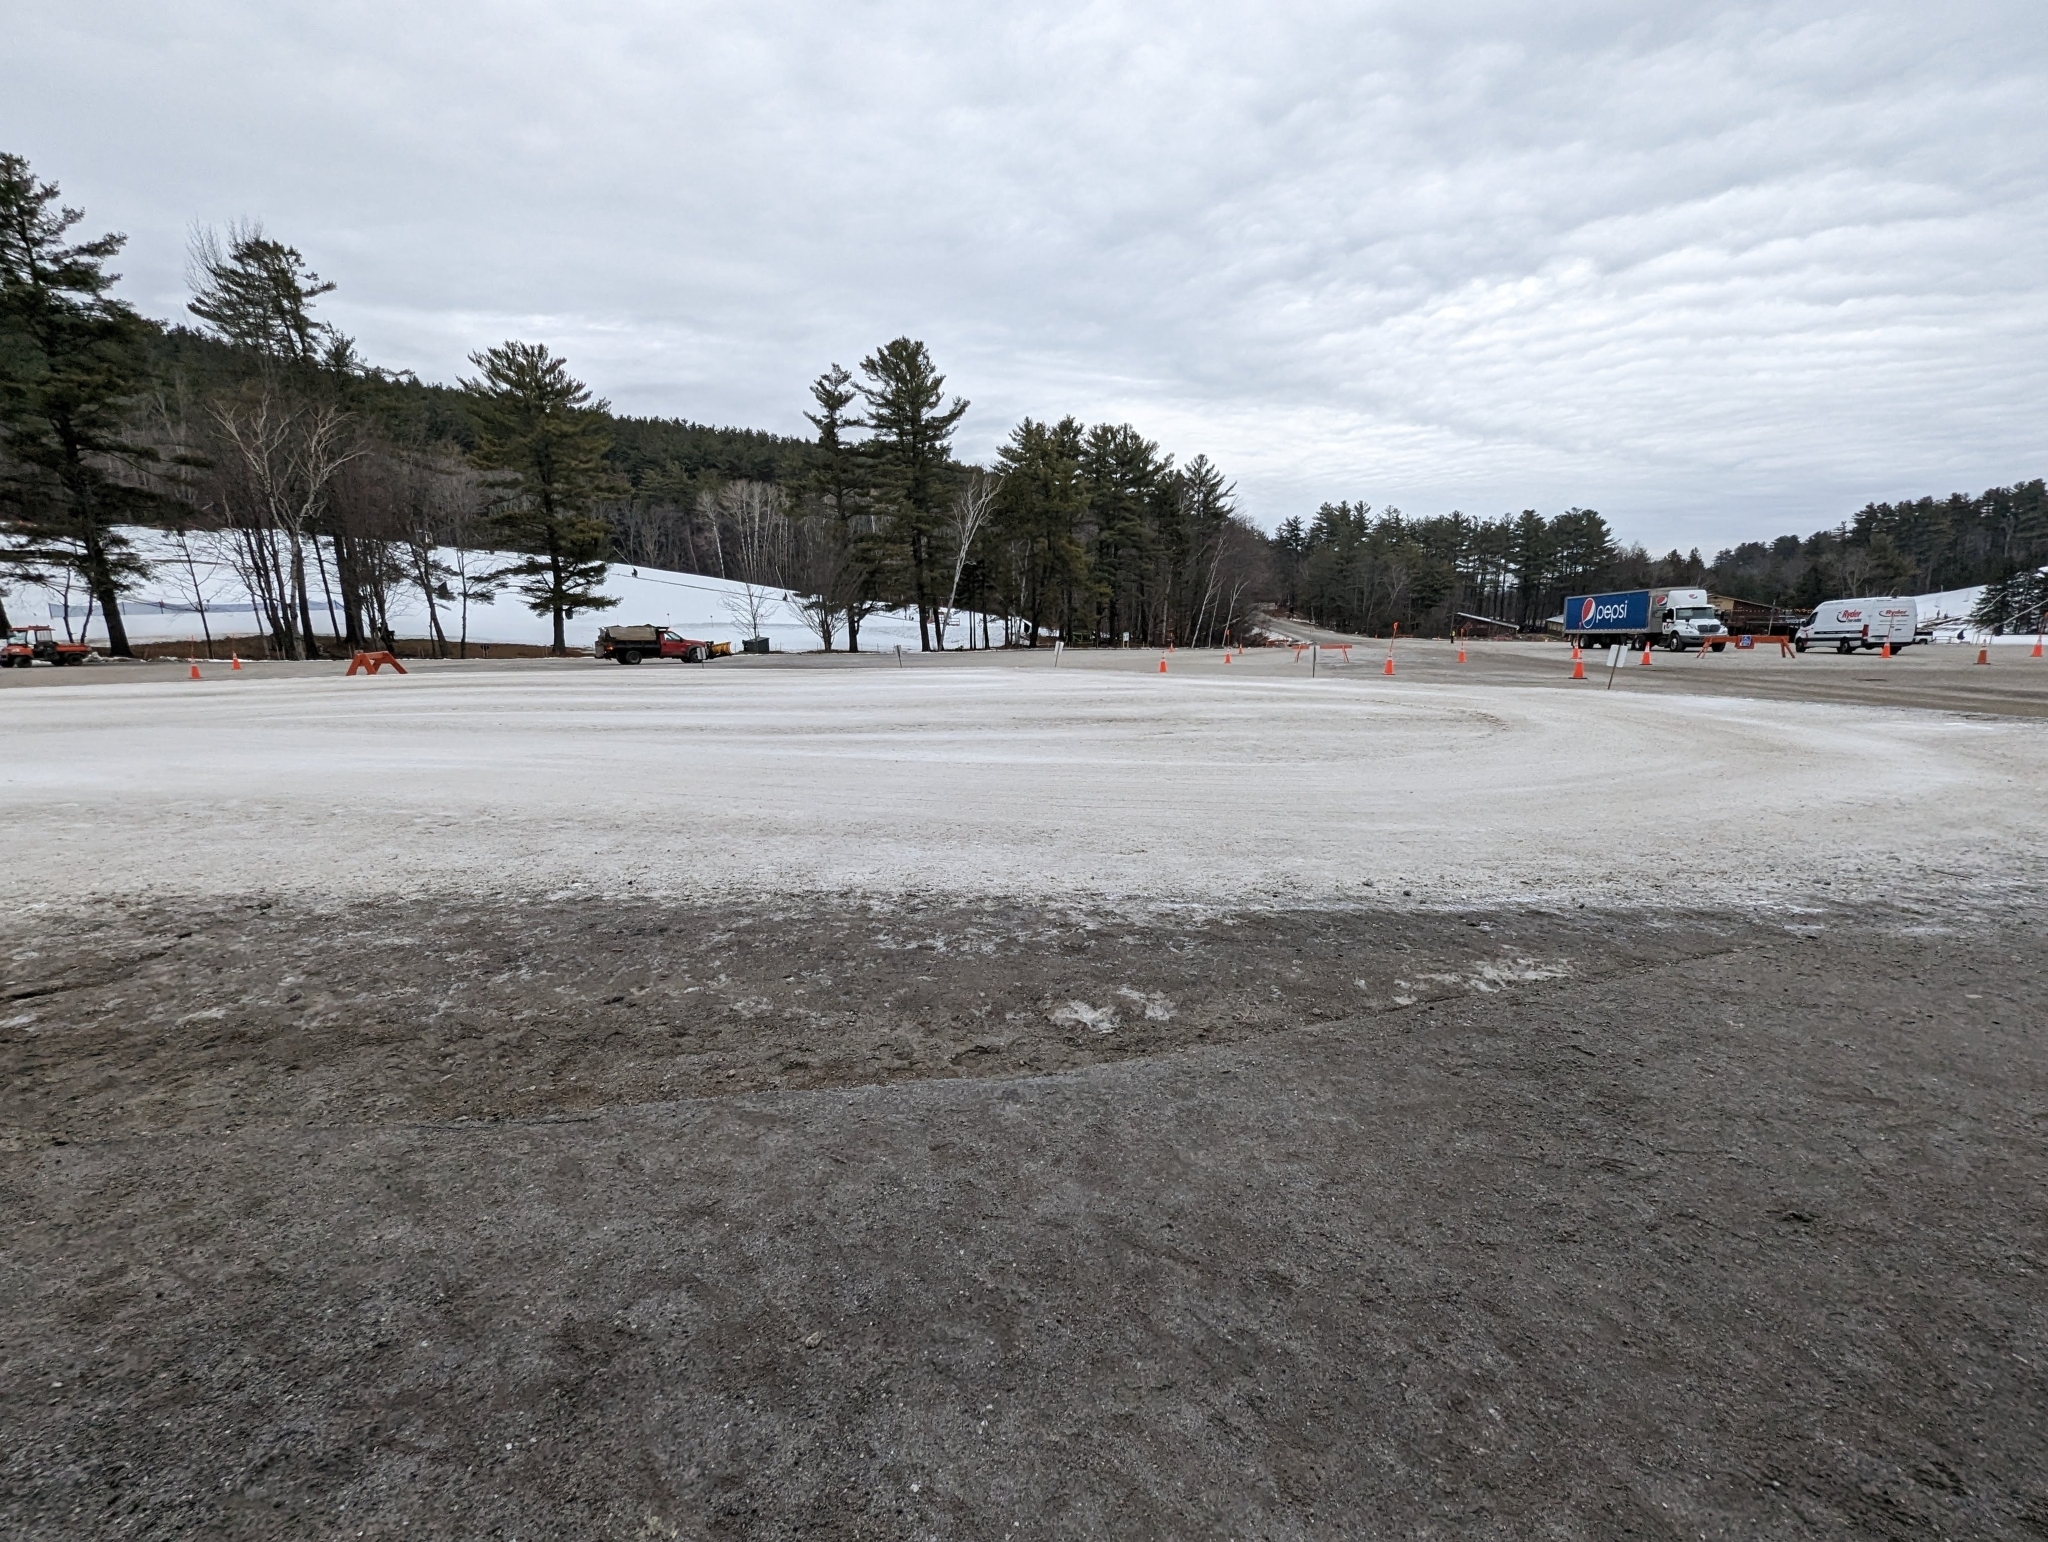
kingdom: Plantae
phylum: Tracheophyta
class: Pinopsida
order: Pinales
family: Pinaceae
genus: Pinus
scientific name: Pinus strobus
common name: Weymouth pine
